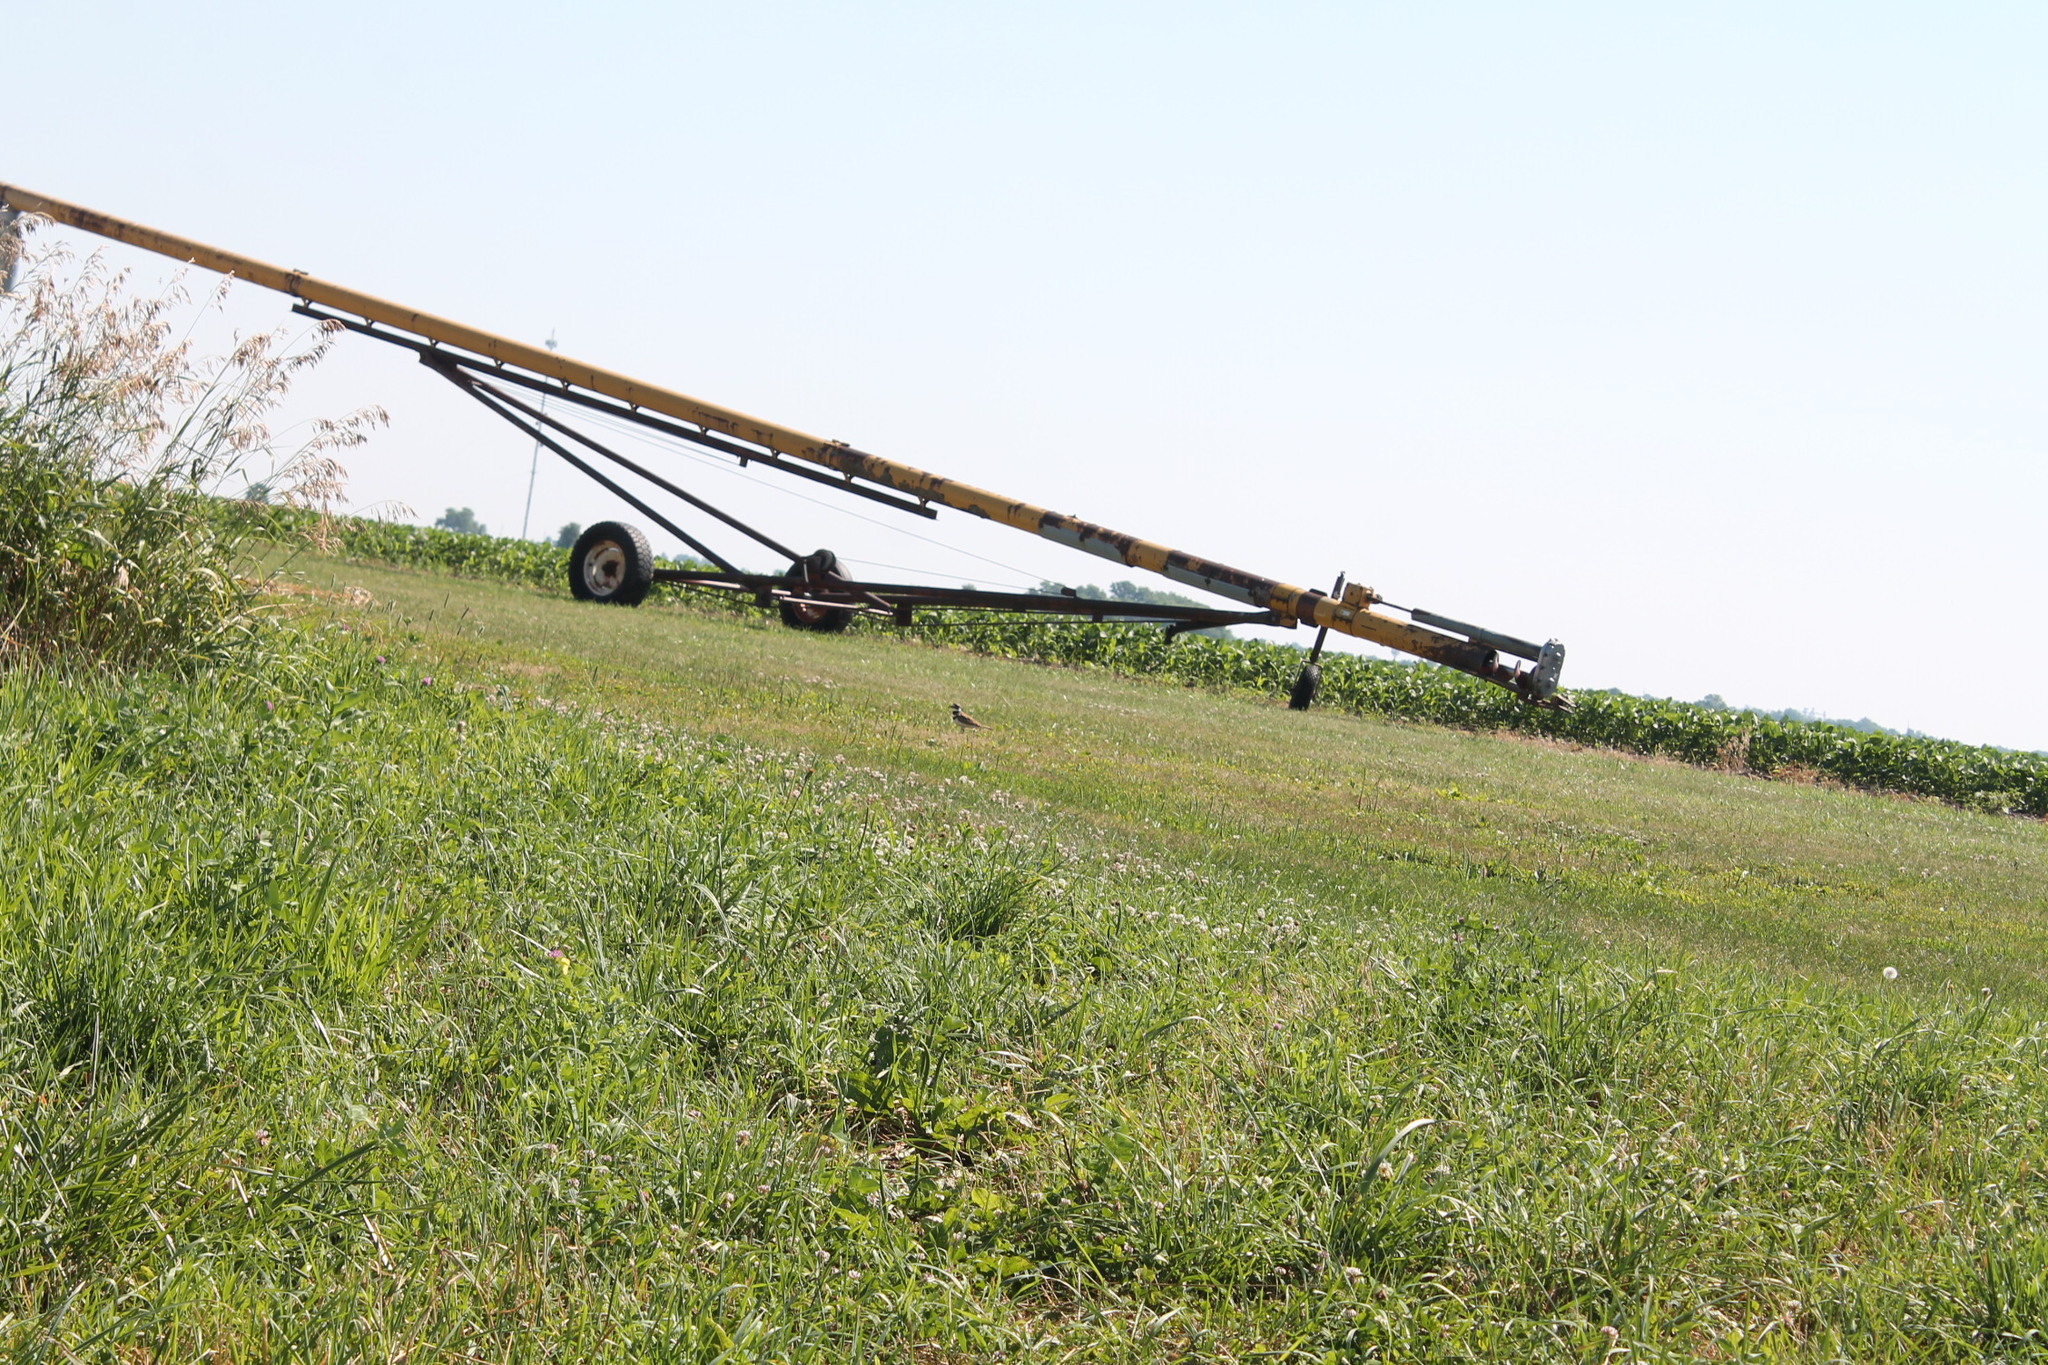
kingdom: Animalia
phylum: Chordata
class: Aves
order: Charadriiformes
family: Charadriidae
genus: Charadrius
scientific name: Charadrius vociferus
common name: Killdeer
